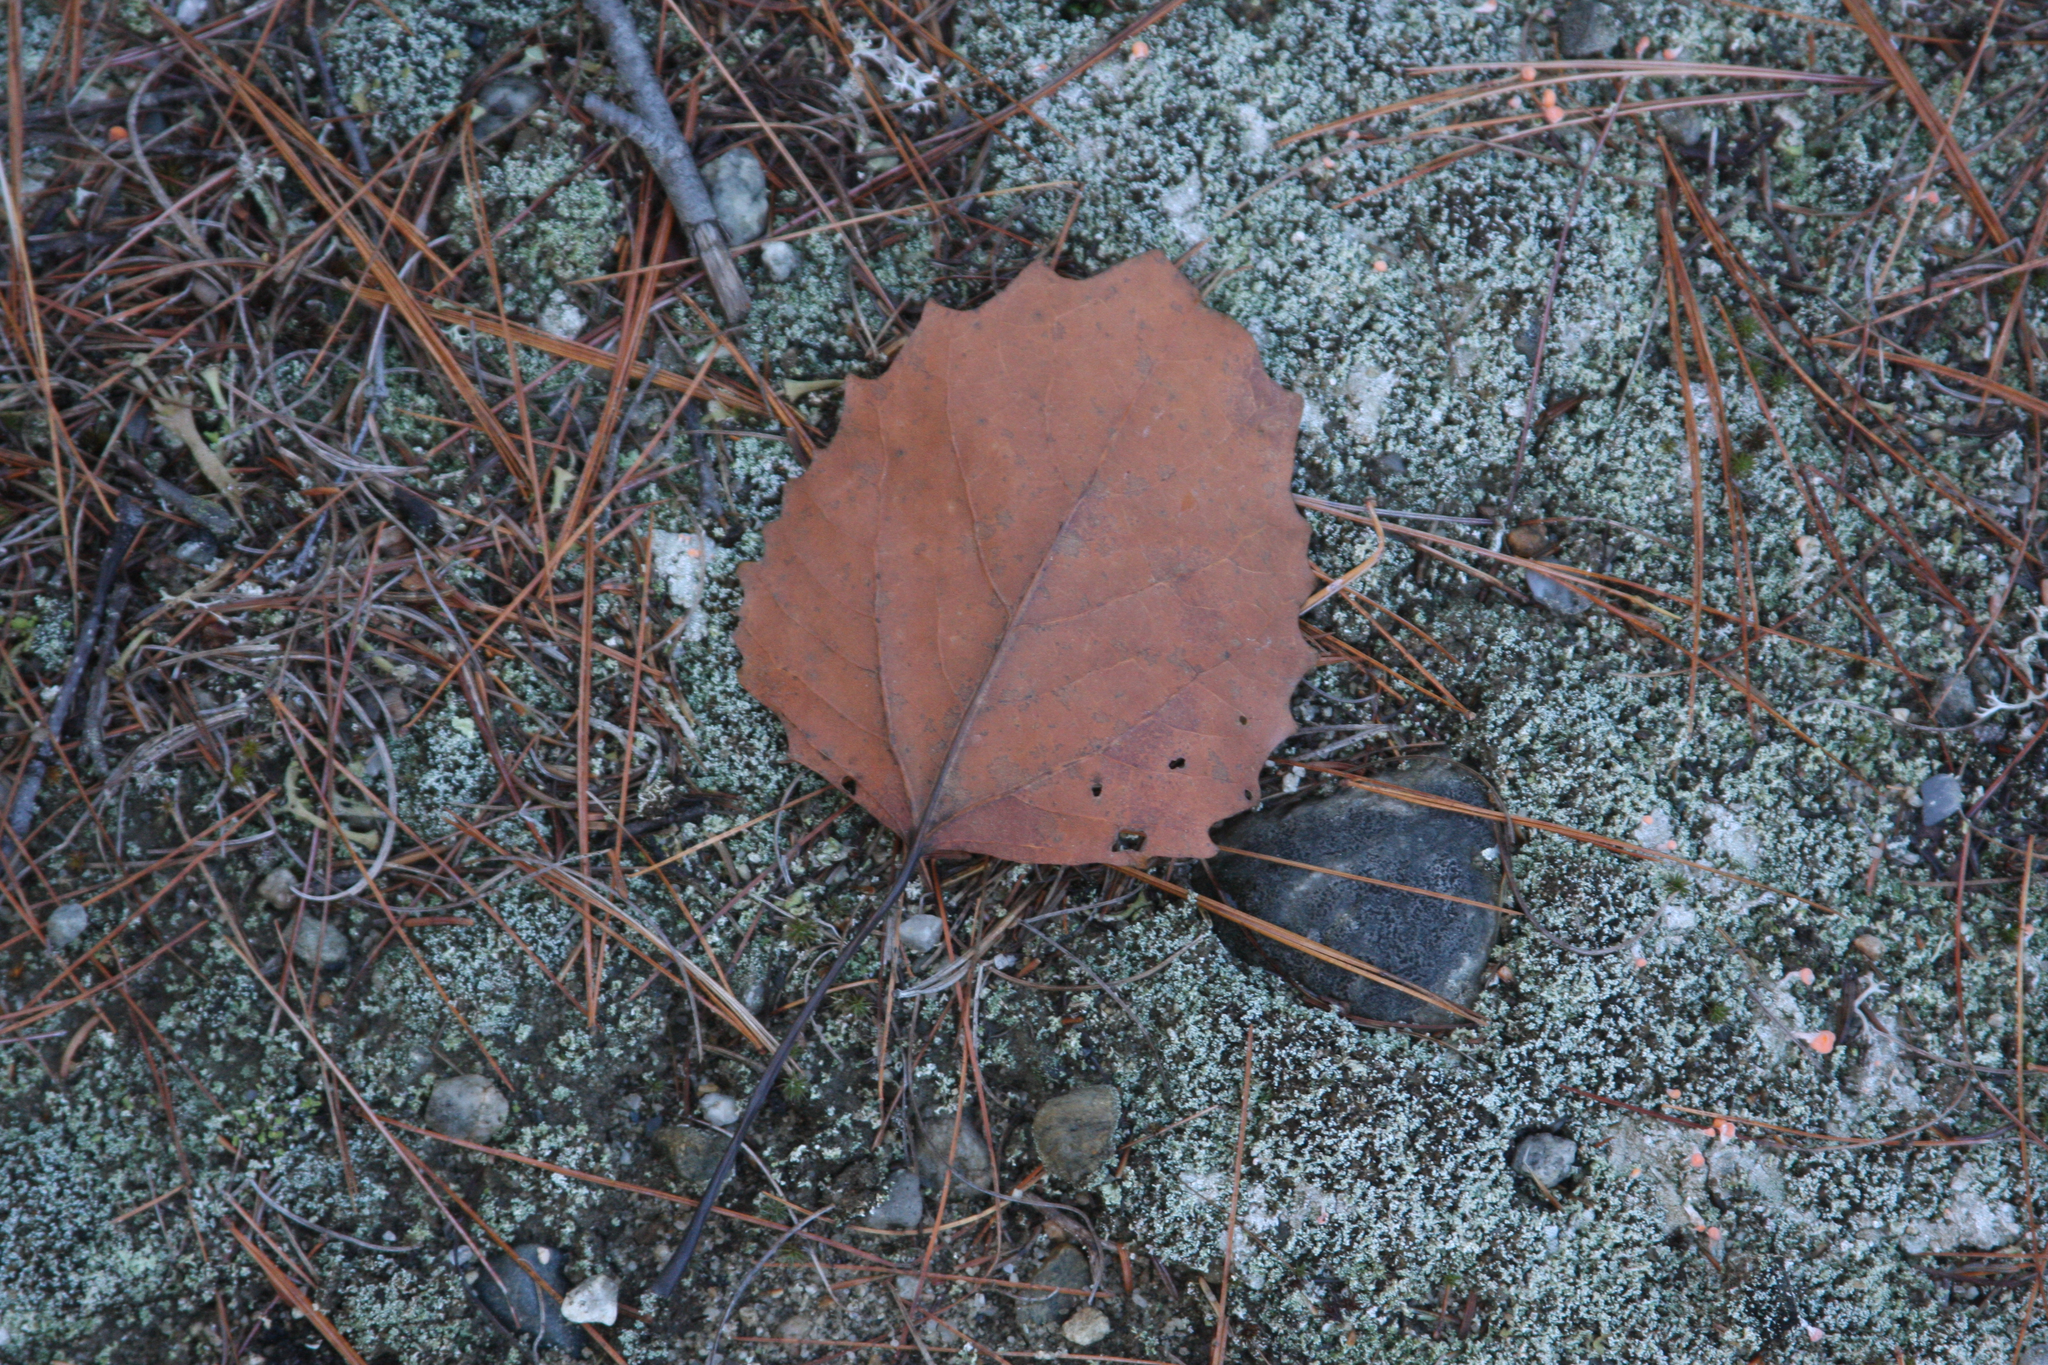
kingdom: Plantae
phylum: Tracheophyta
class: Magnoliopsida
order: Malpighiales
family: Salicaceae
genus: Populus
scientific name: Populus grandidentata
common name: Bigtooth aspen
